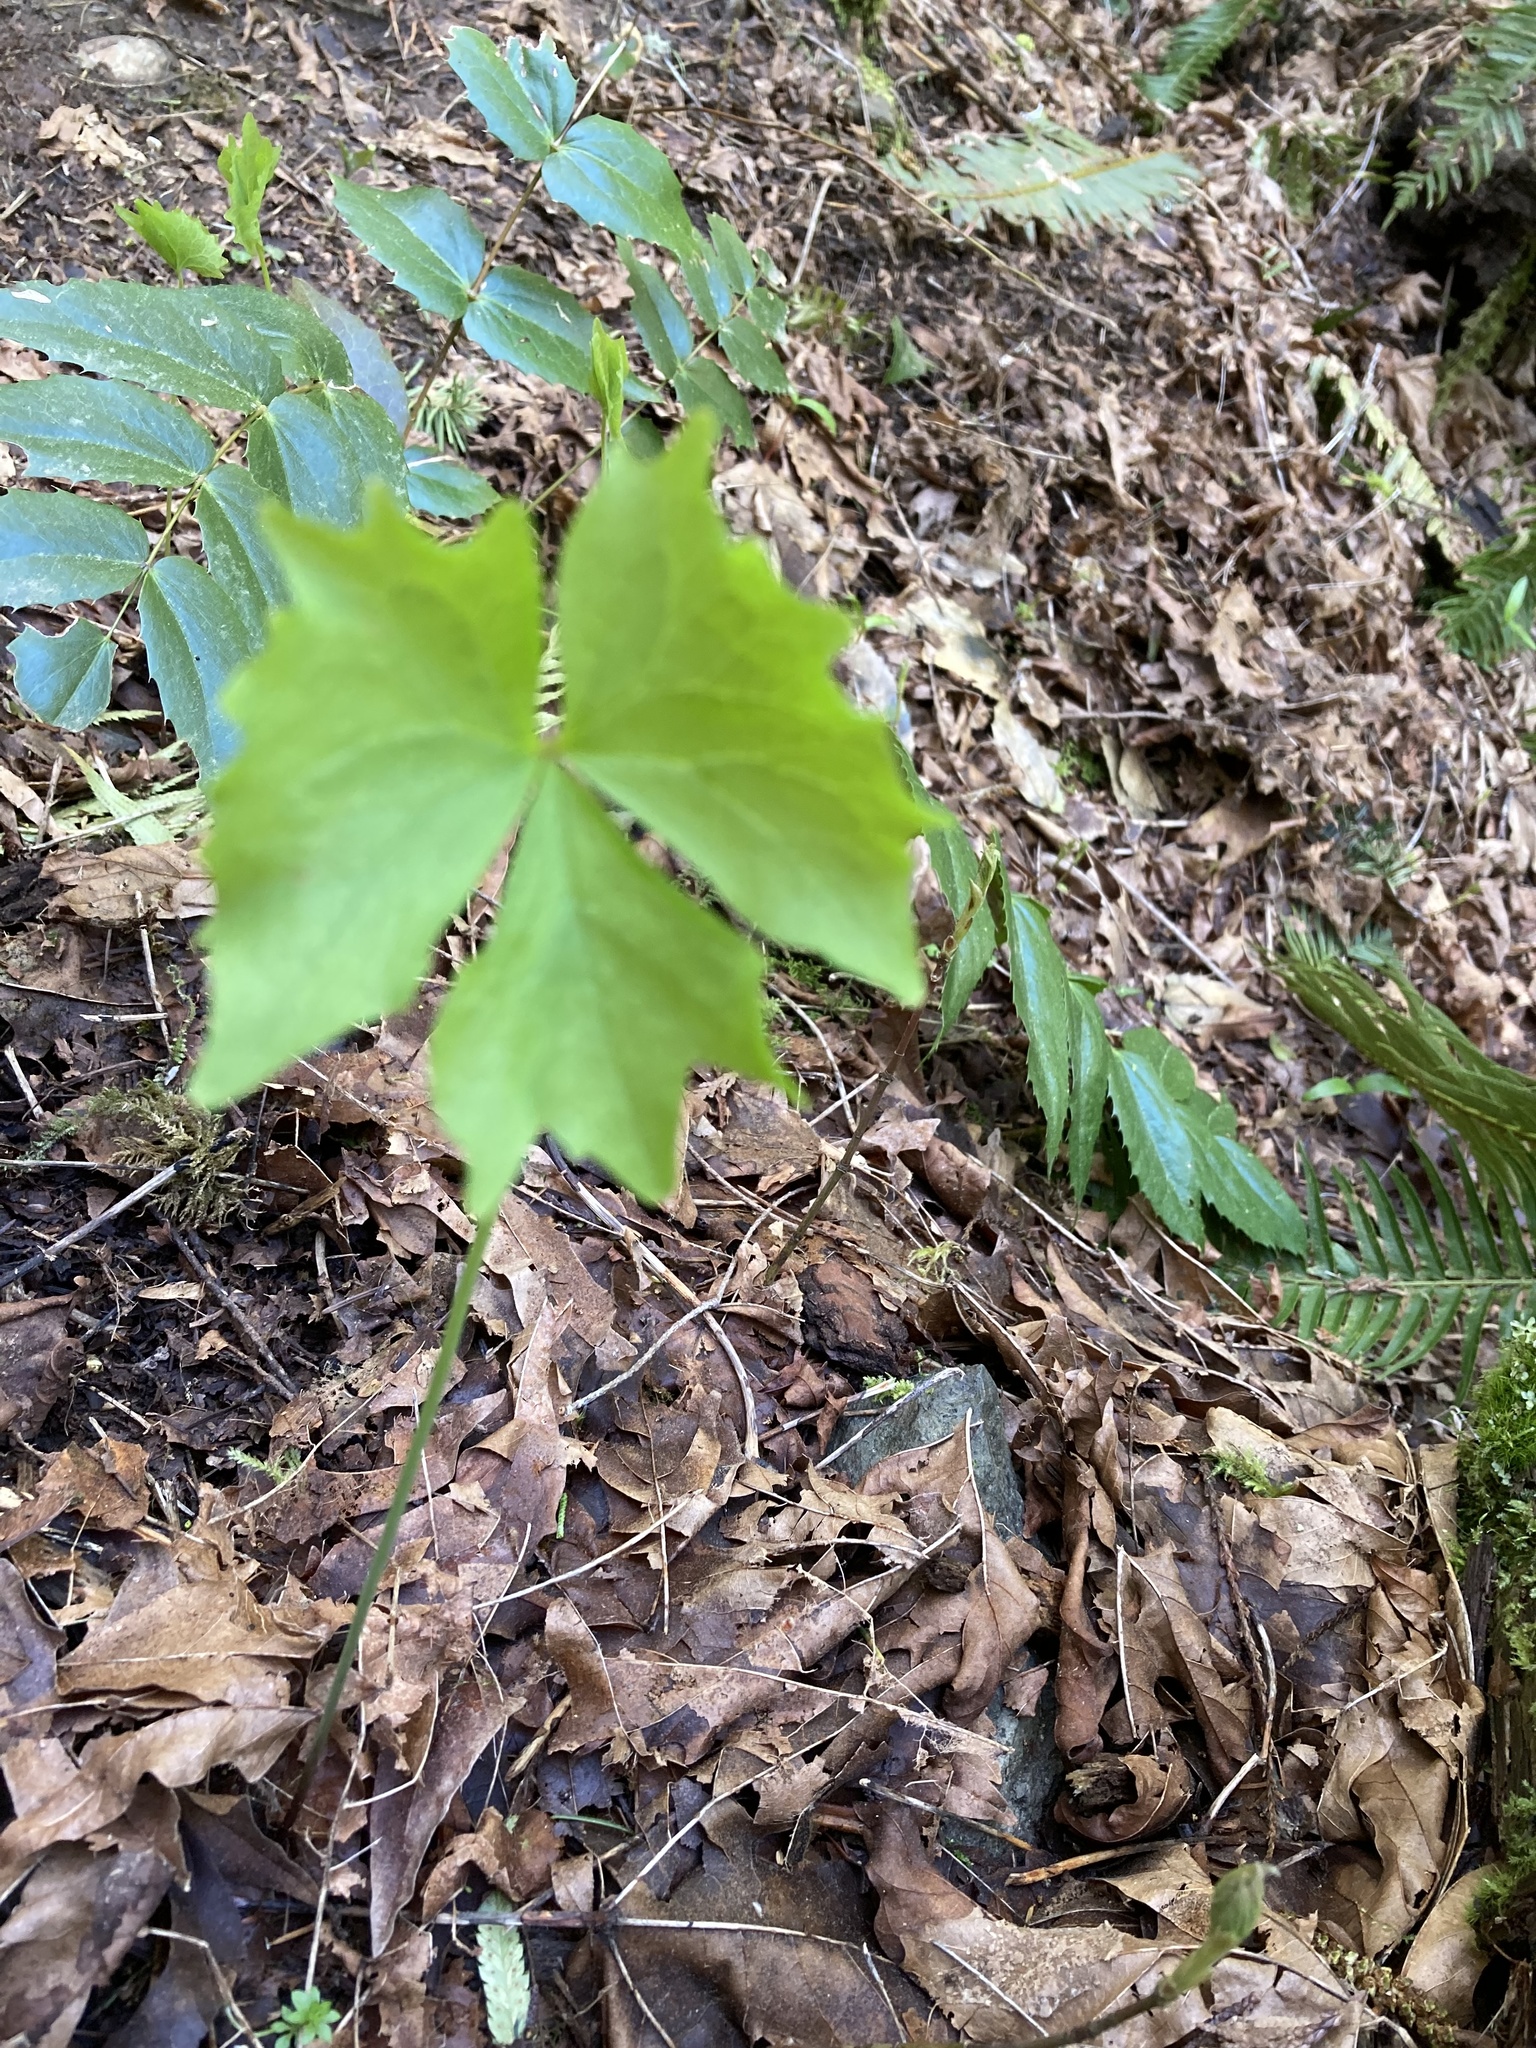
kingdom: Plantae
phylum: Tracheophyta
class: Magnoliopsida
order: Ranunculales
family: Berberidaceae
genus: Achlys
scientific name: Achlys triphylla
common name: Vanilla-leaf
